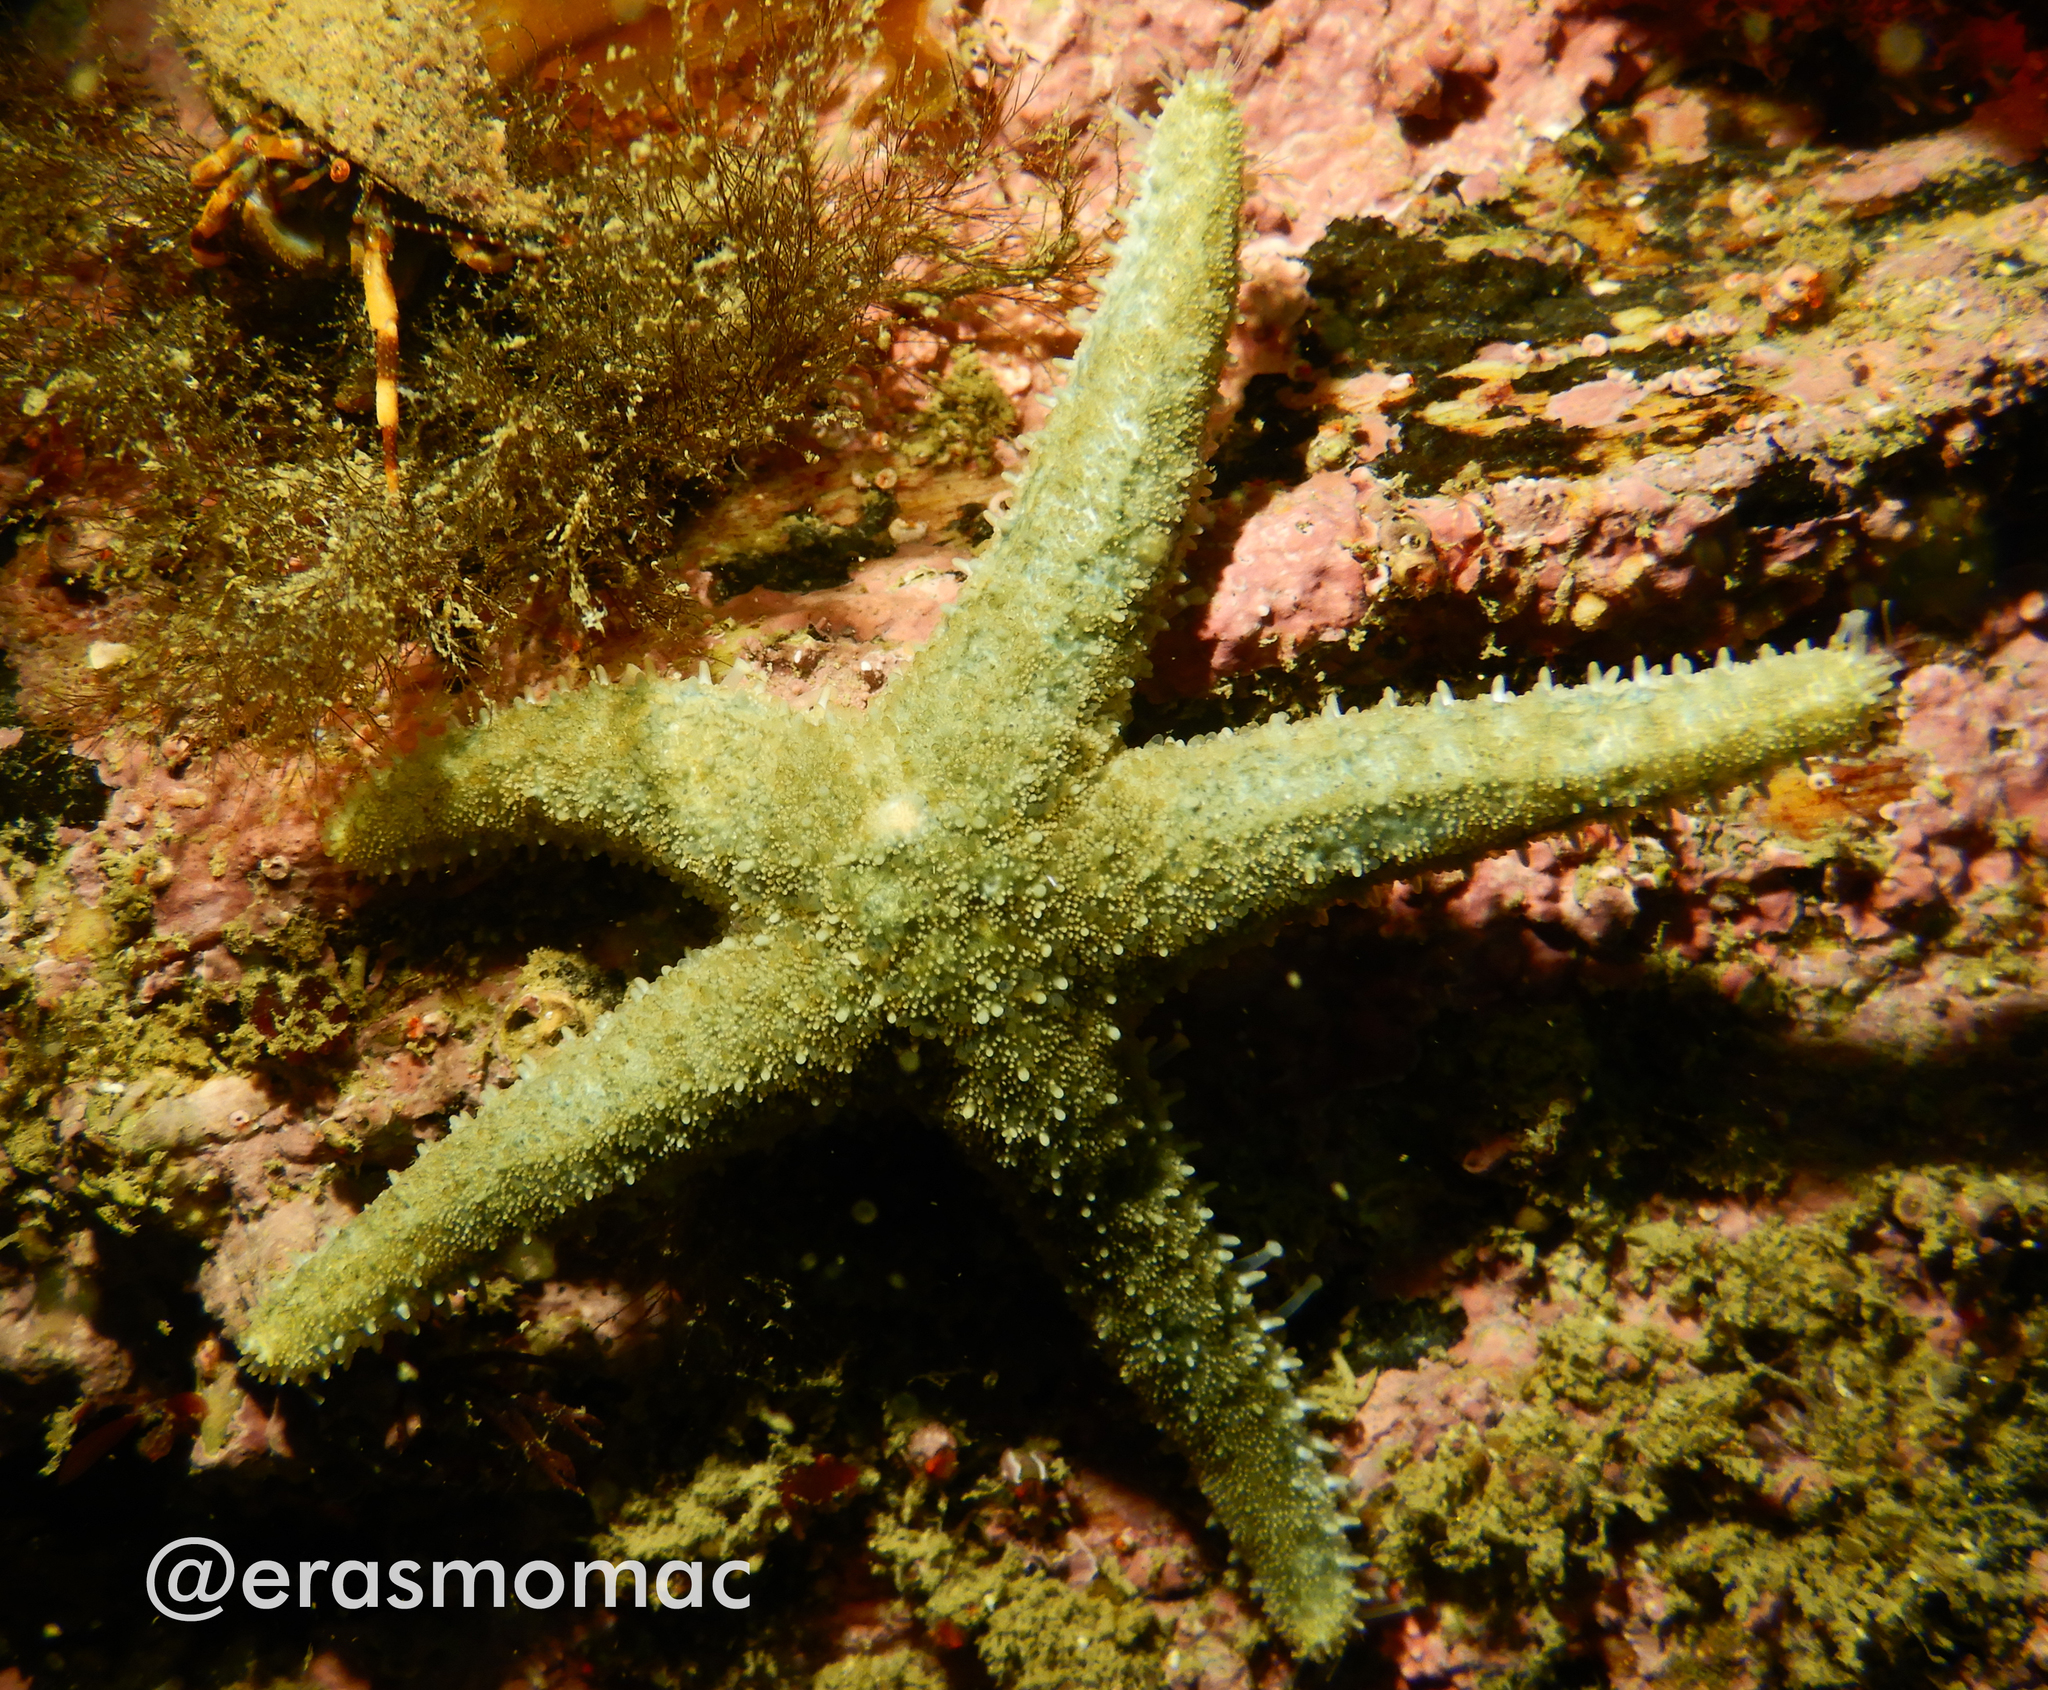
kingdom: Animalia
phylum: Echinodermata
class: Asteroidea
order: Forcipulatida
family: Asteriidae
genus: Anasterias
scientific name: Anasterias antarctica
